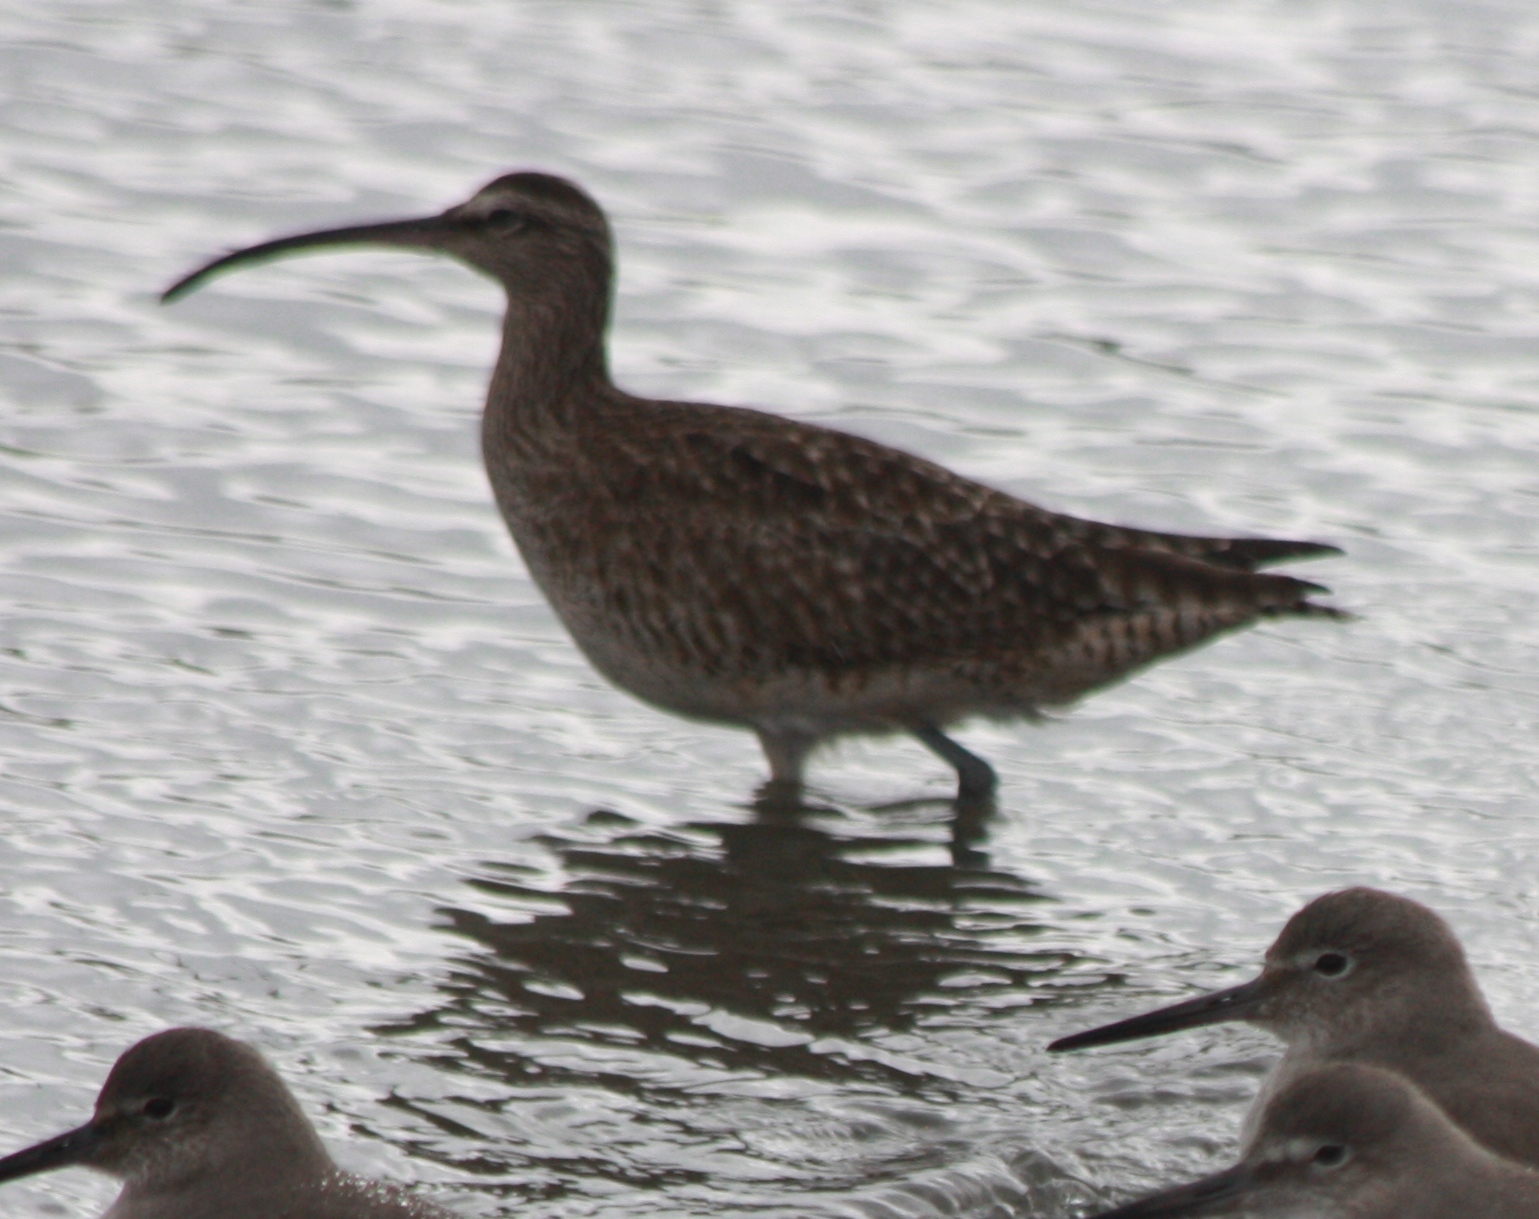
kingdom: Animalia
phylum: Chordata
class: Aves
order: Charadriiformes
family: Scolopacidae
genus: Numenius
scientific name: Numenius phaeopus
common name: Whimbrel
